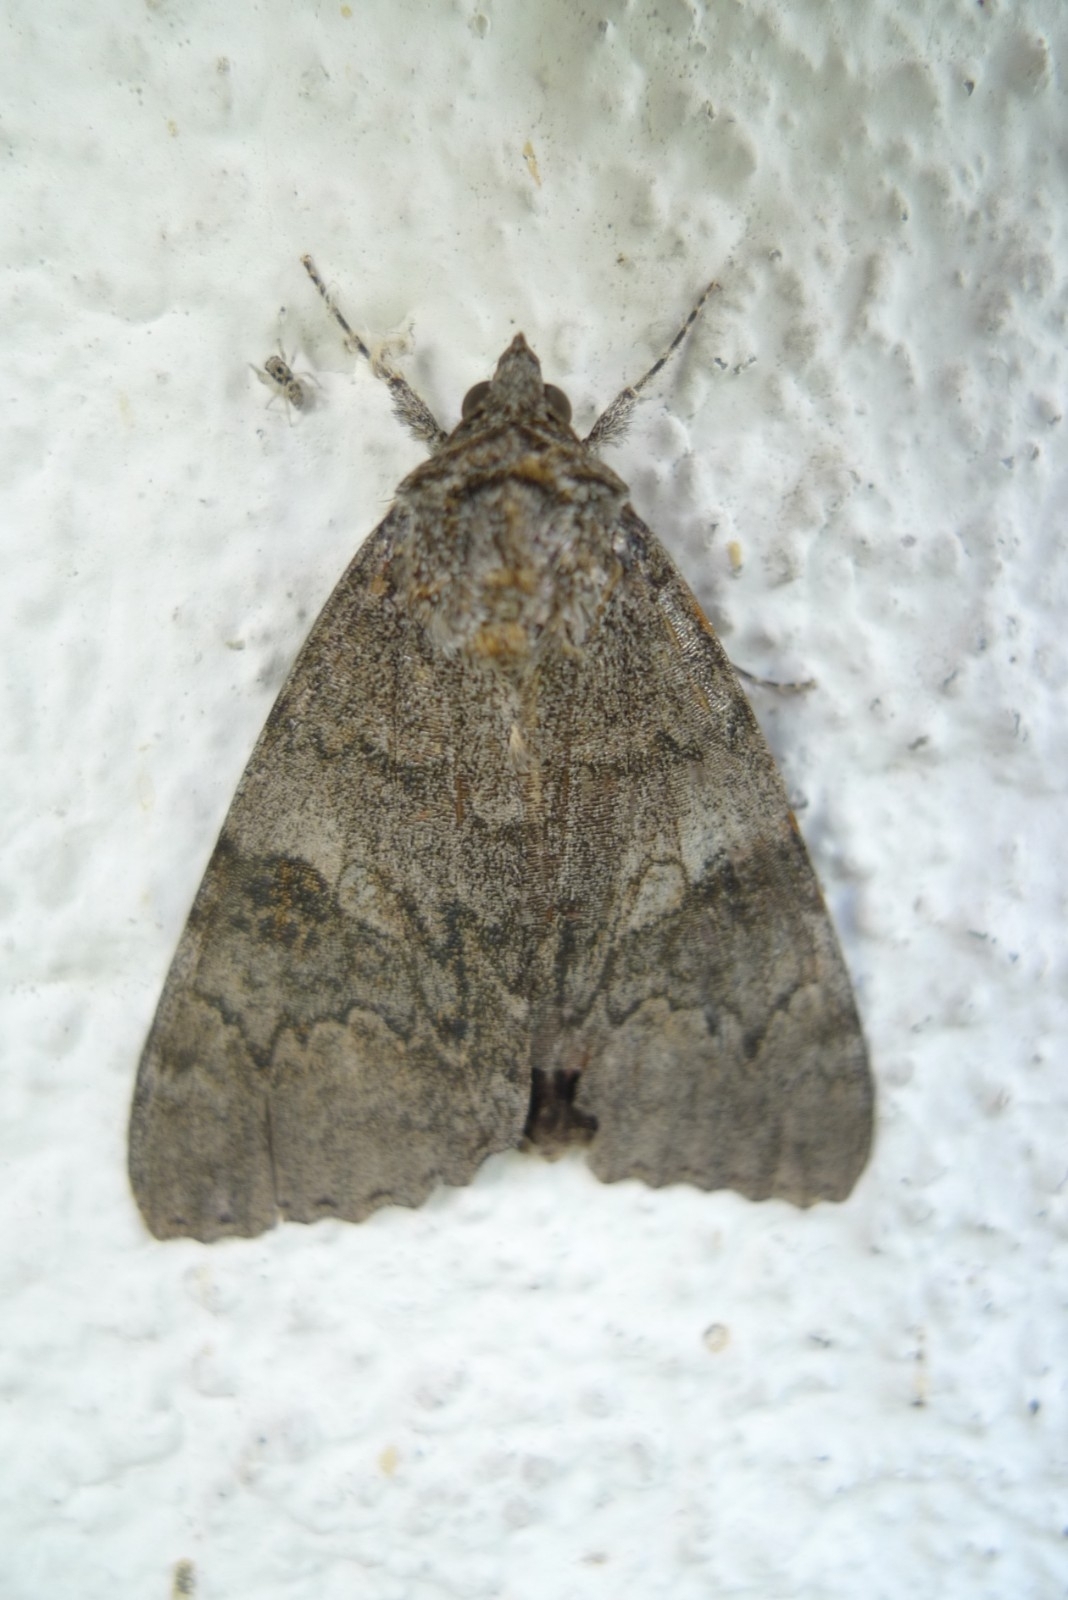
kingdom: Animalia
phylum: Arthropoda
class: Insecta
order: Lepidoptera
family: Erebidae
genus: Catocala
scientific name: Catocala nupta
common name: Red underwing
